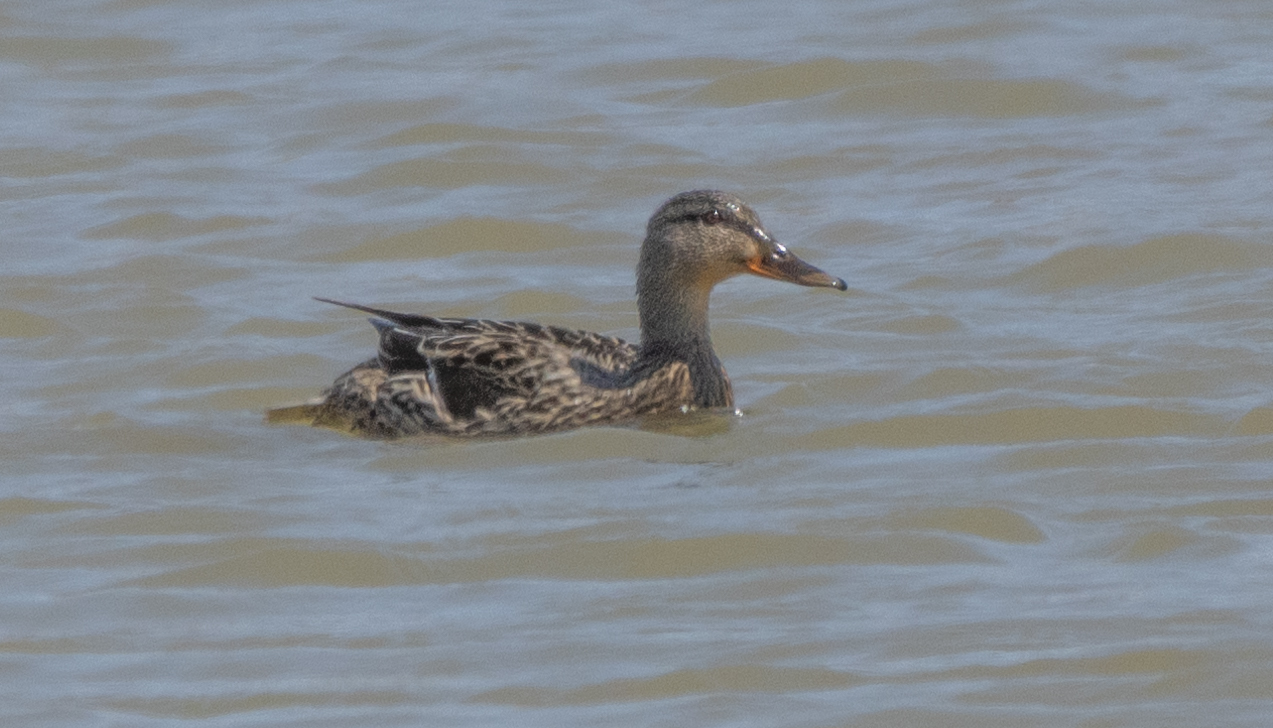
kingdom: Animalia
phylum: Chordata
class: Aves
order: Anseriformes
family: Anatidae
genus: Anas
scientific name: Anas platyrhynchos
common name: Mallard
